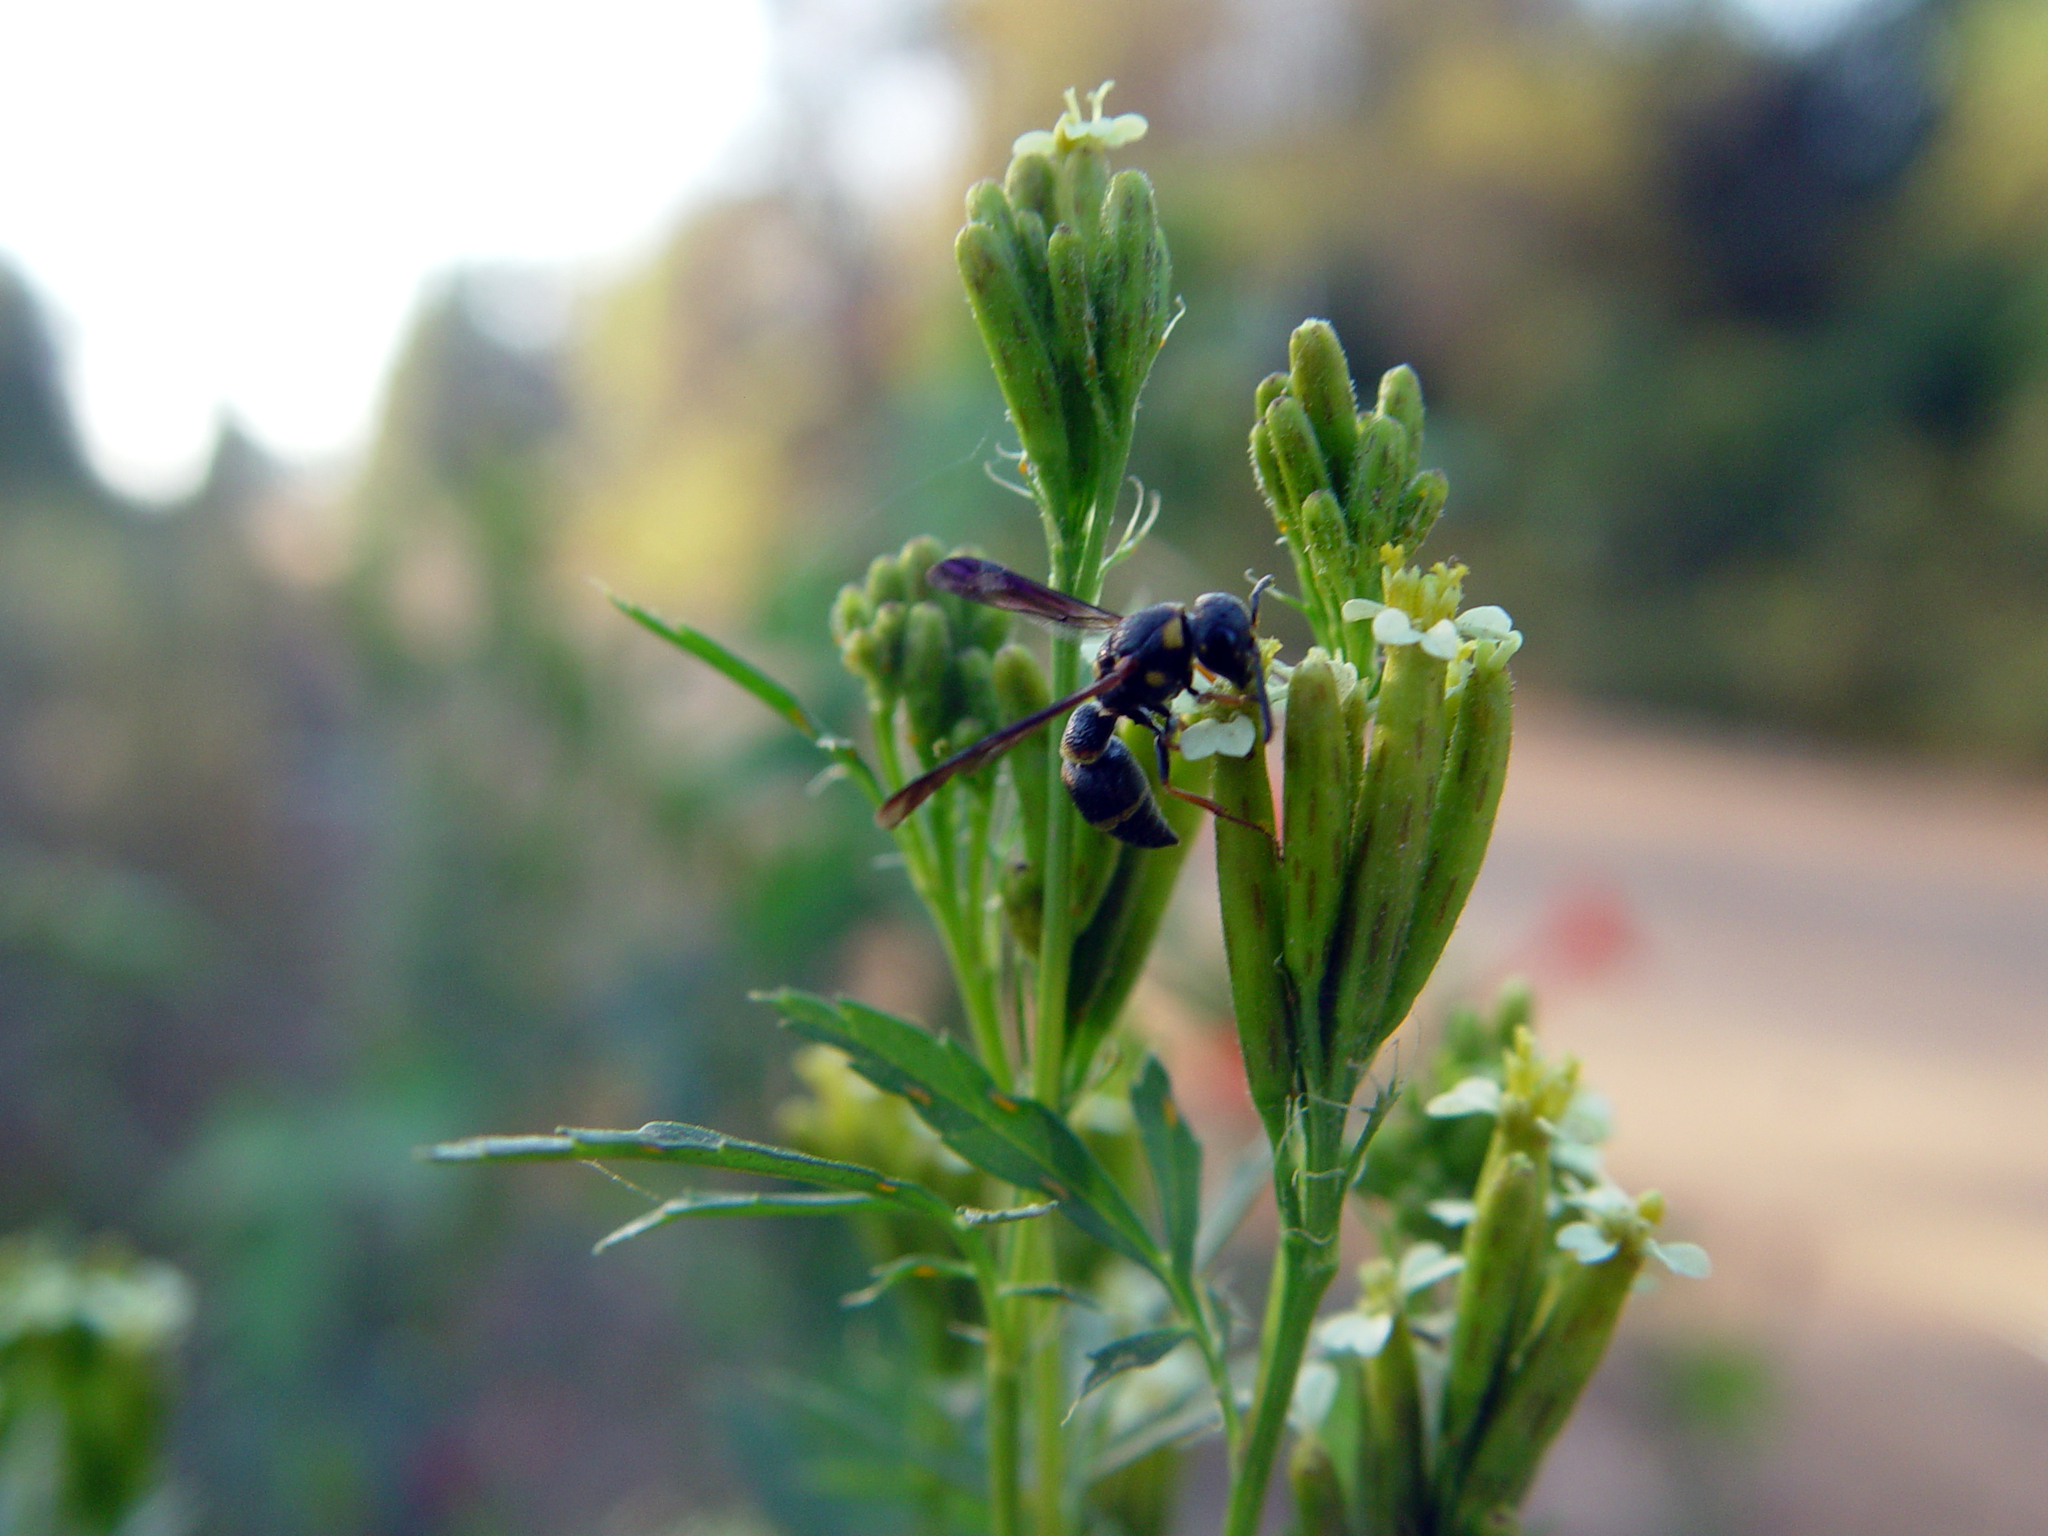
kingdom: Animalia
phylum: Arthropoda
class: Insecta
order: Hymenoptera
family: Eumenidae
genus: Parancistrocerus
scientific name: Parancistrocerus perennis
